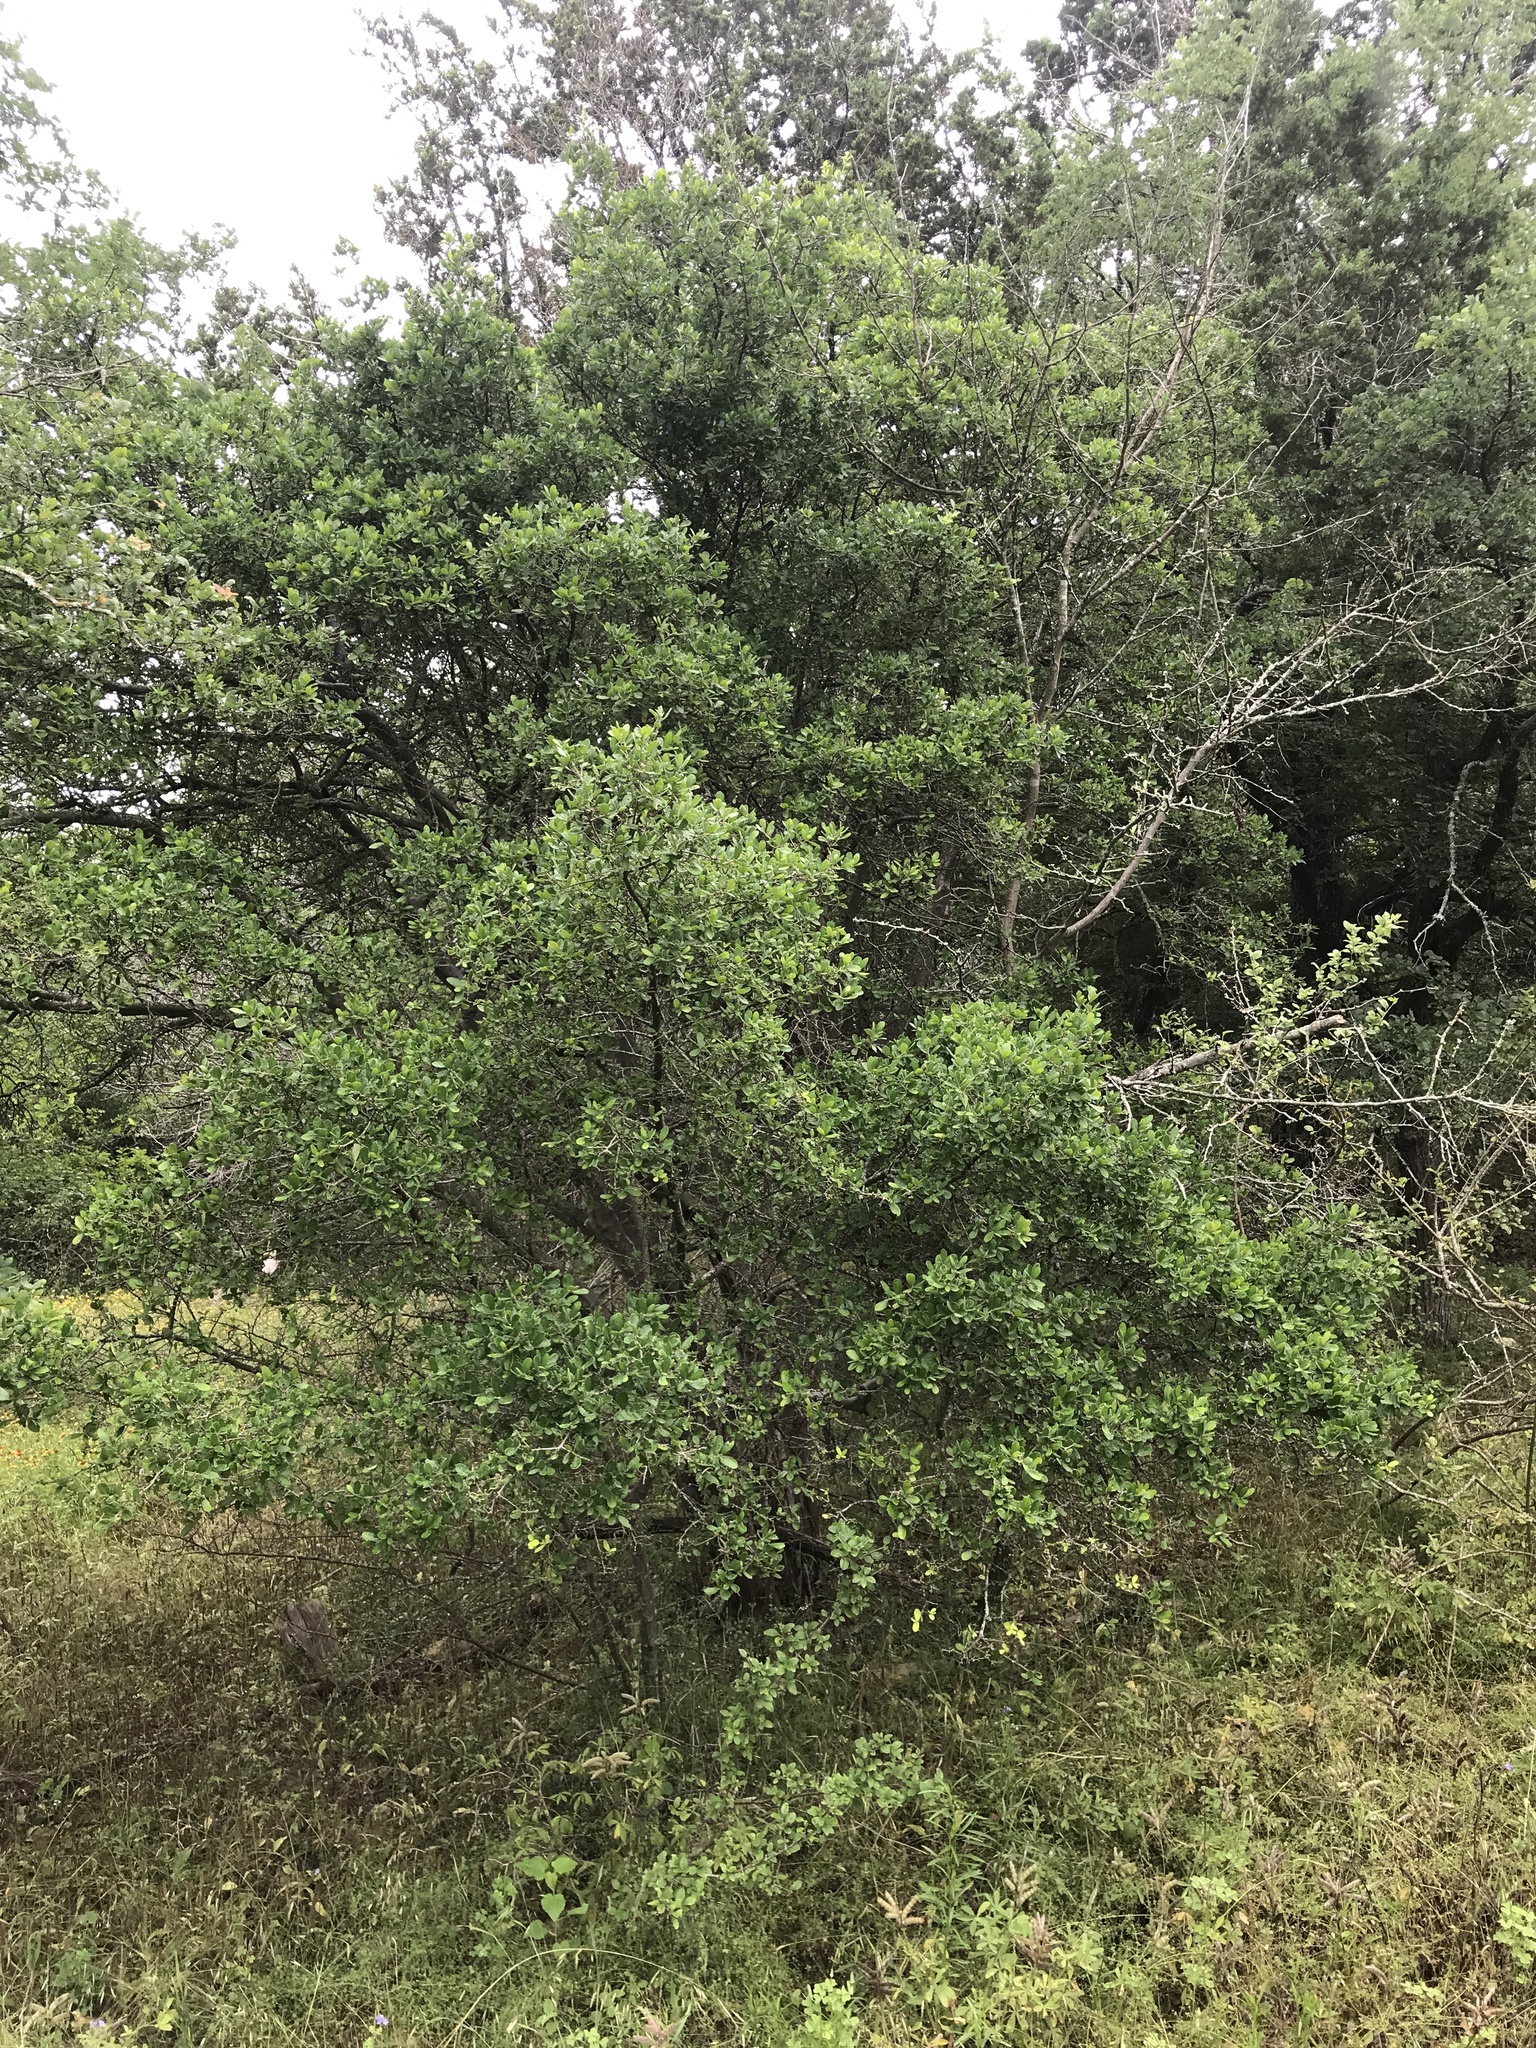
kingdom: Plantae
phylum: Tracheophyta
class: Magnoliopsida
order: Ericales
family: Ebenaceae
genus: Diospyros
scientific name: Diospyros texana
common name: Texas persimmon
